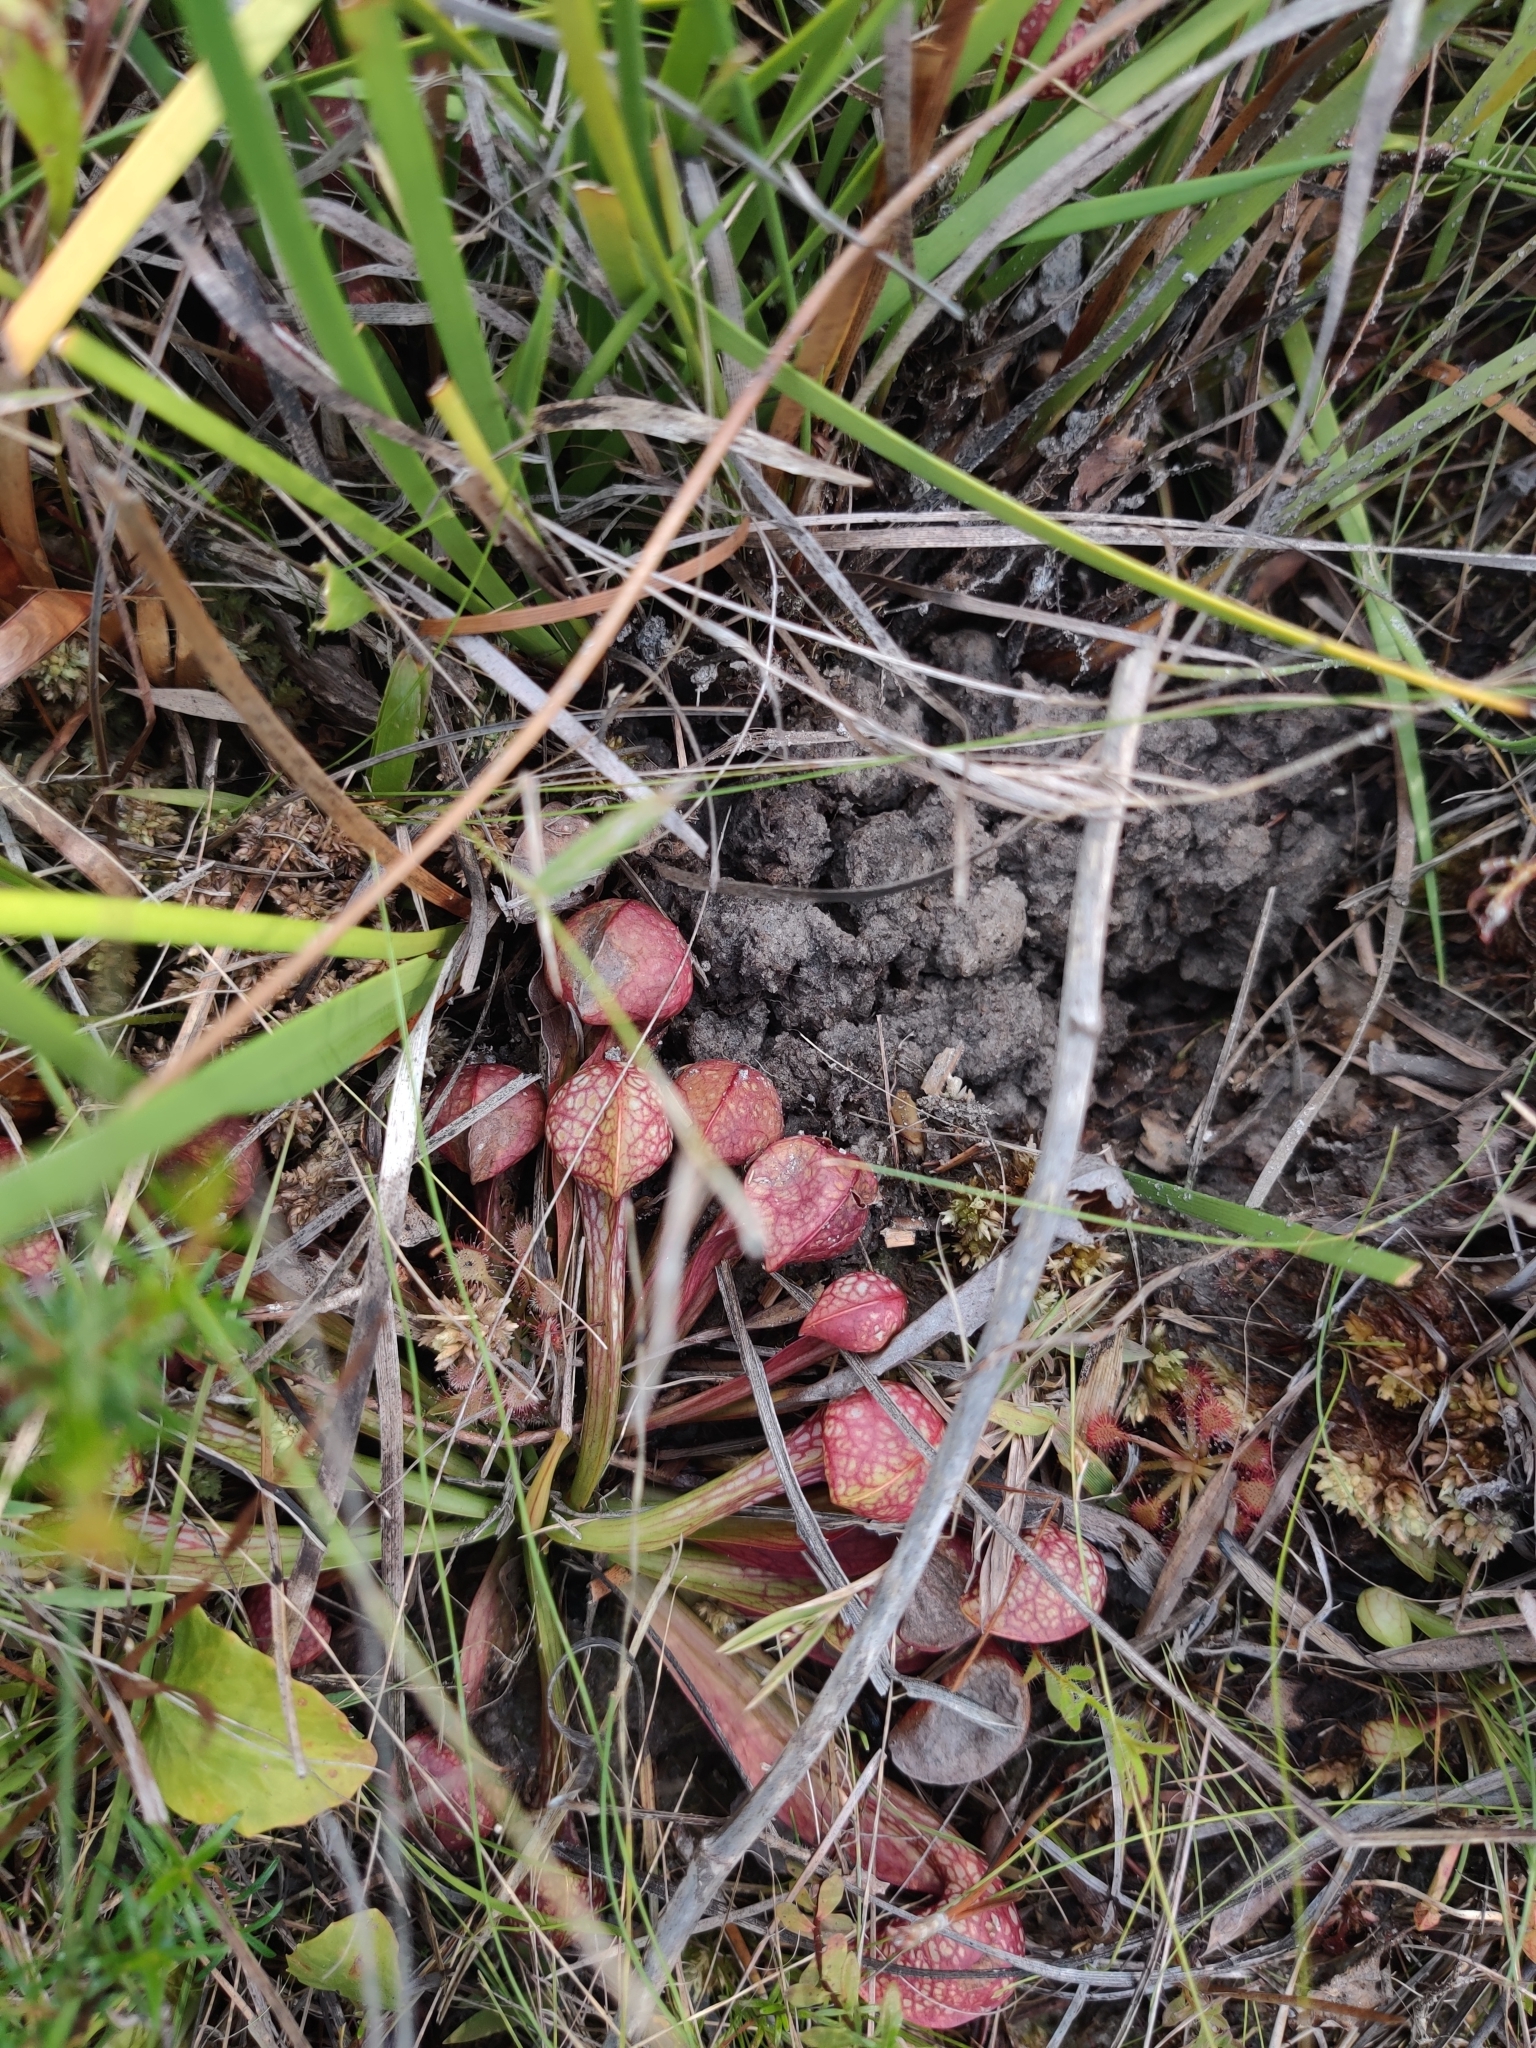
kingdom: Plantae
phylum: Tracheophyta
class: Magnoliopsida
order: Ericales
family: Sarraceniaceae
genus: Sarracenia
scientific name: Sarracenia psittacina
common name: Parrot pitcherplant
